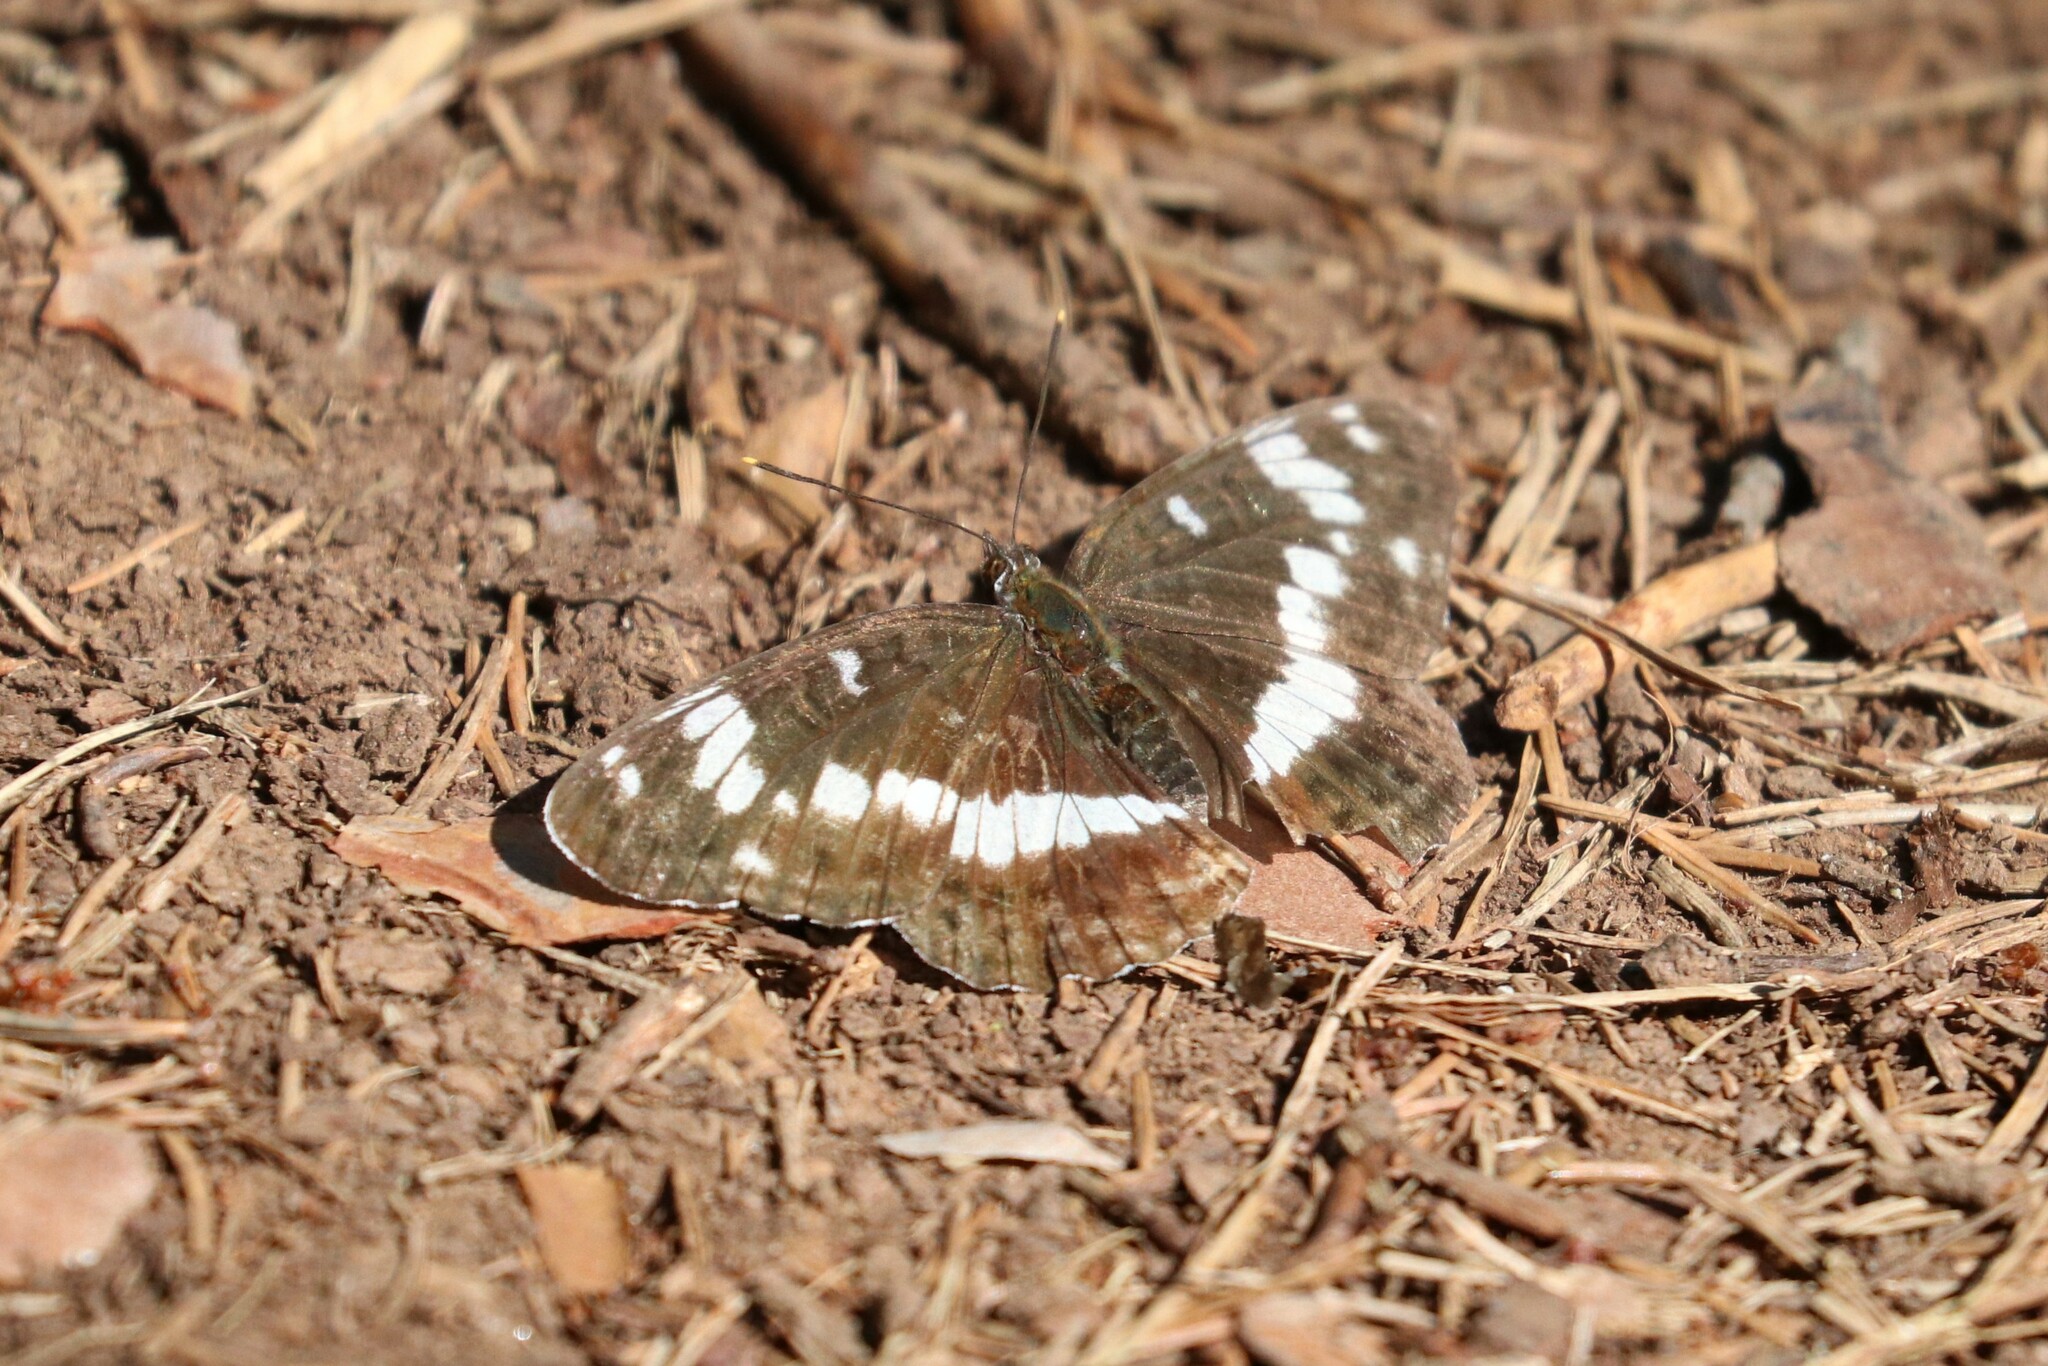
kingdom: Animalia
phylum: Arthropoda
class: Insecta
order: Lepidoptera
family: Nymphalidae
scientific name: Nymphalidae
